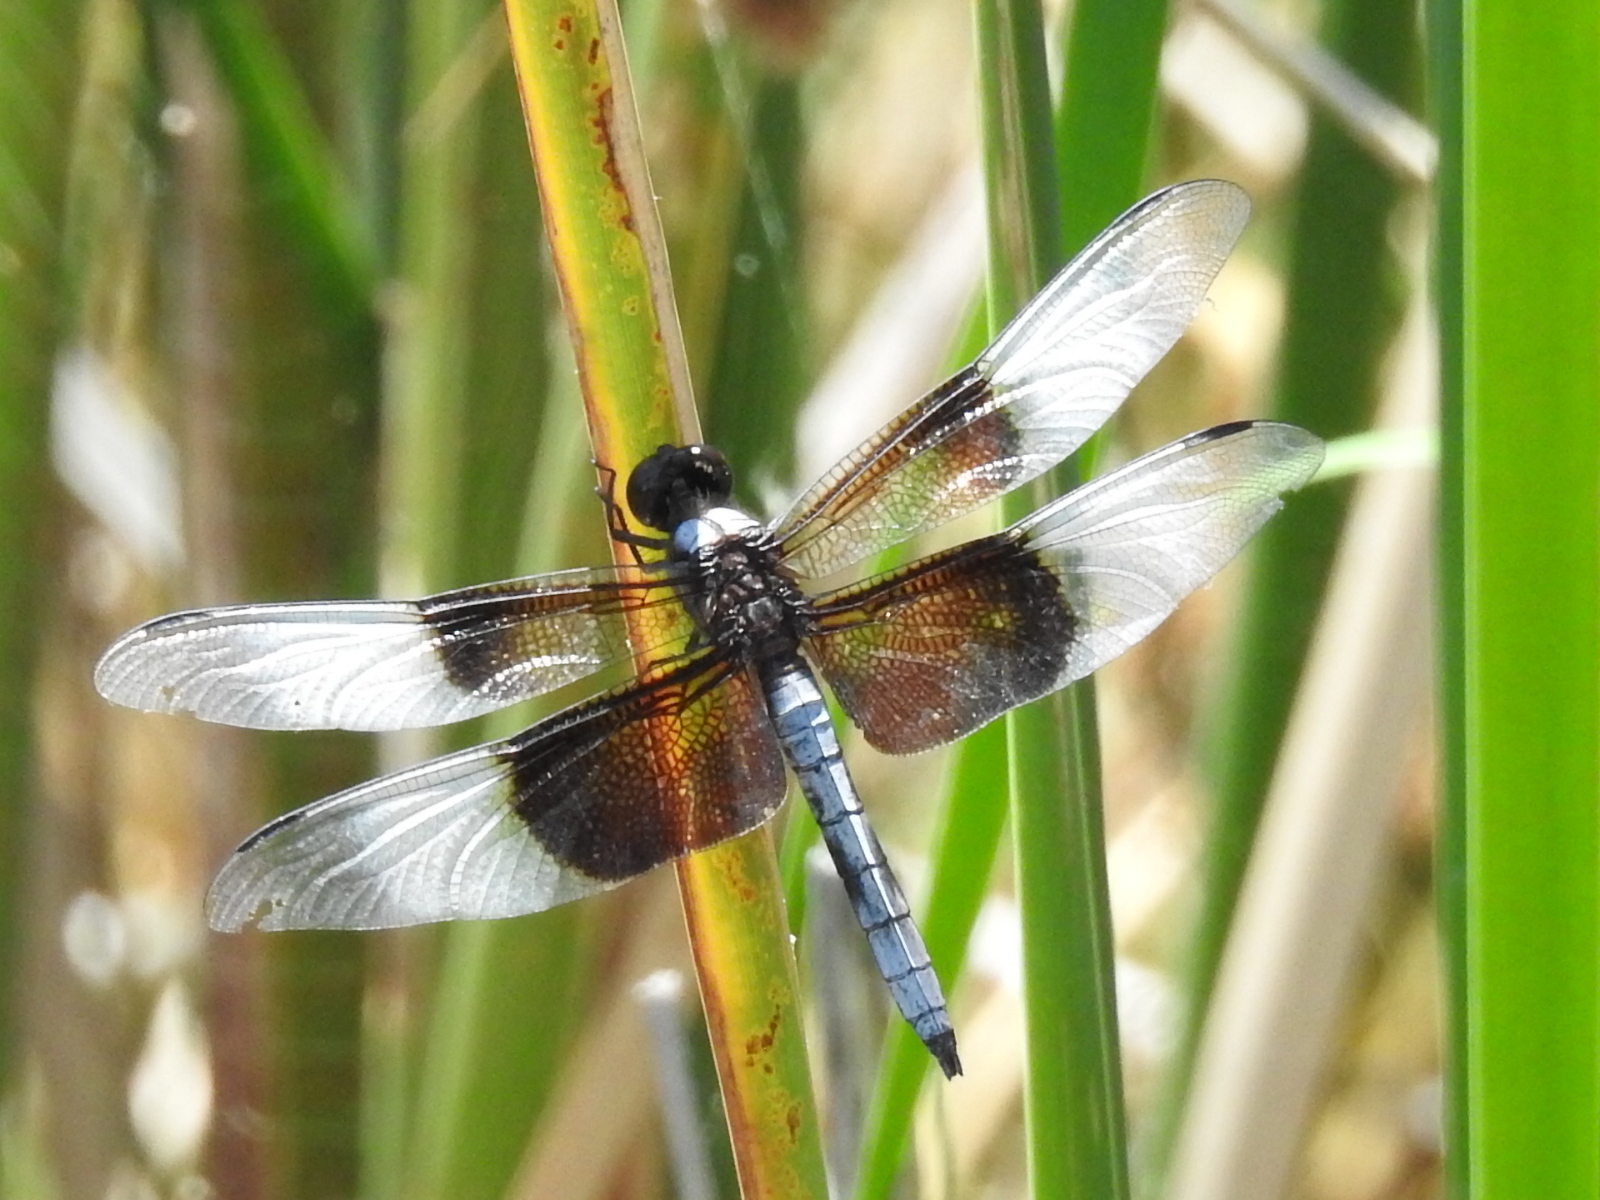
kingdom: Animalia
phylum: Arthropoda
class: Insecta
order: Odonata
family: Libellulidae
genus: Libellula
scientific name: Libellula luctuosa
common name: Widow skimmer
